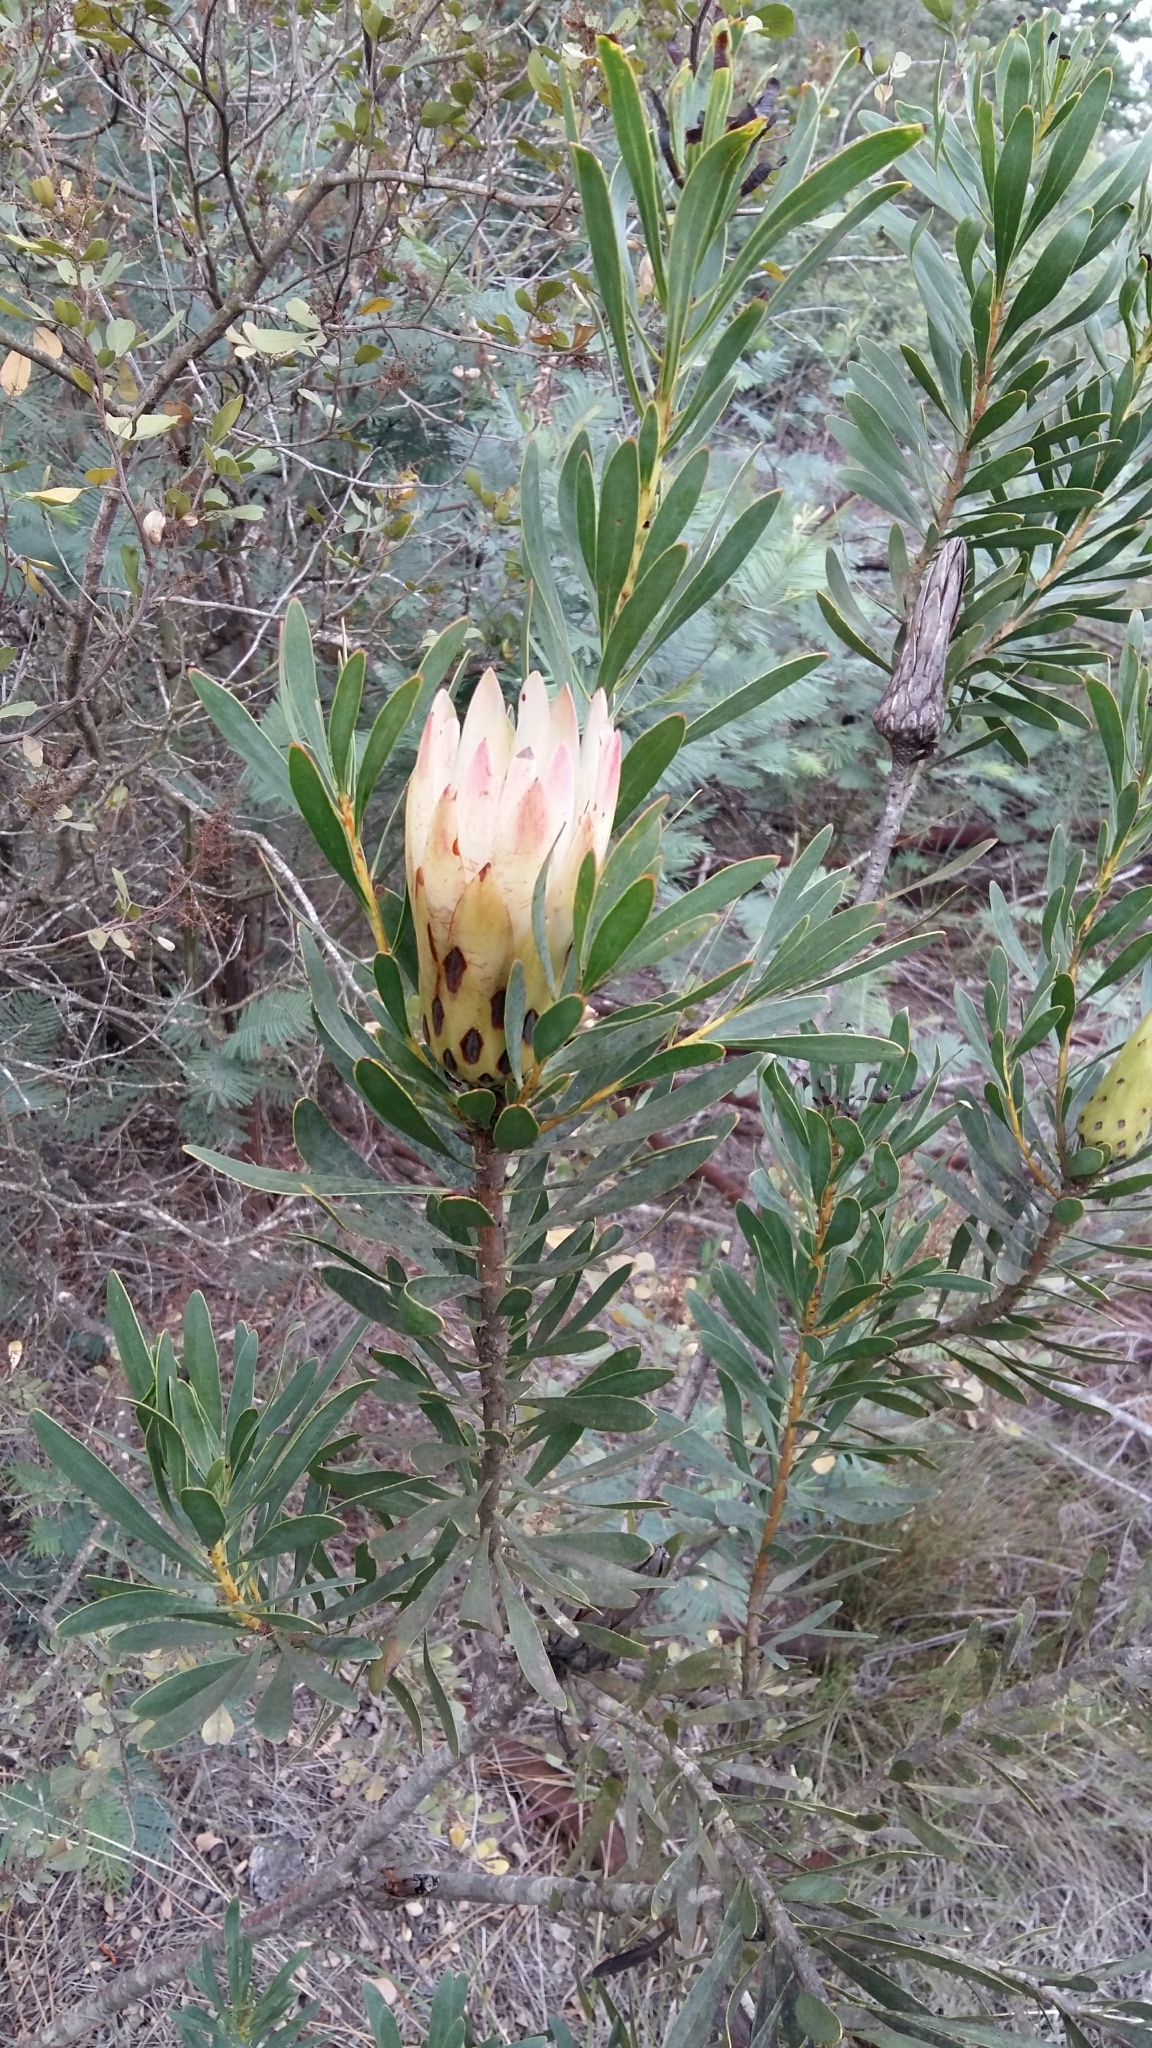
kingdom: Plantae
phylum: Tracheophyta
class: Magnoliopsida
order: Proteales
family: Proteaceae
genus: Protea
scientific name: Protea repens
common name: Sugarbush
